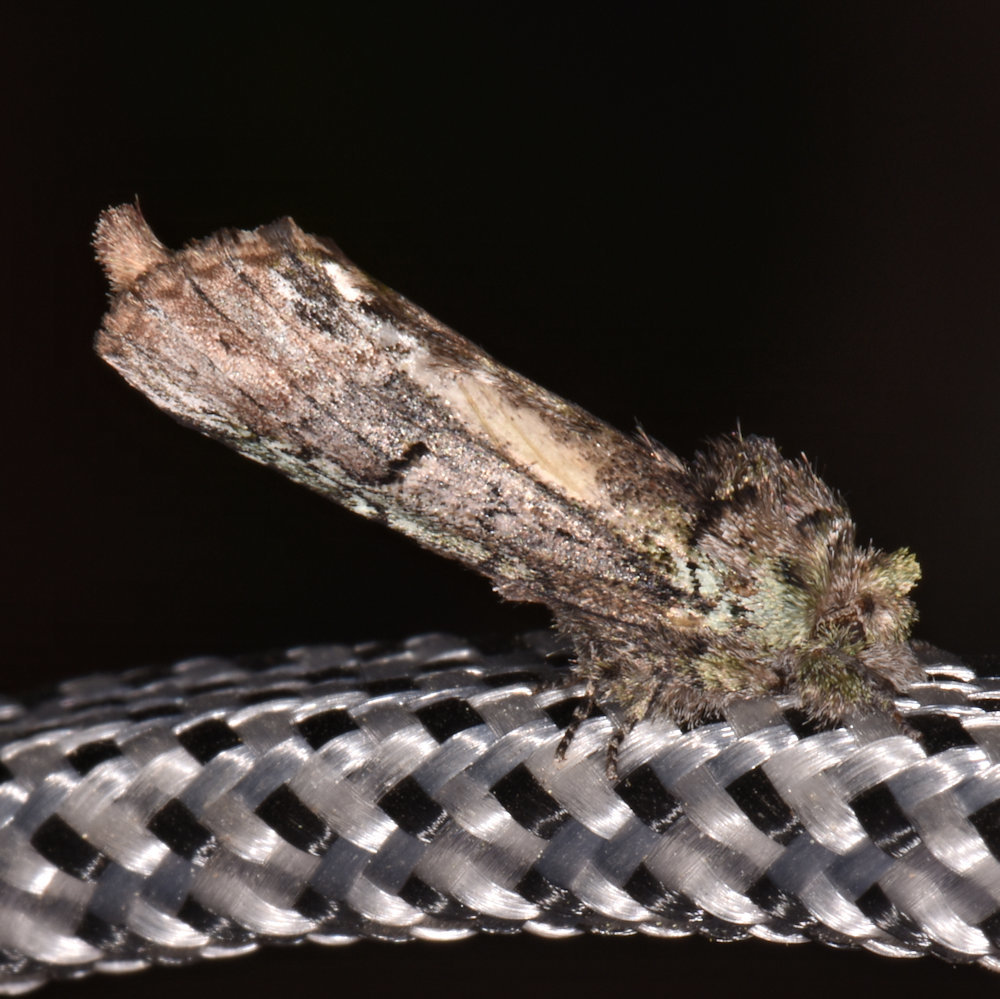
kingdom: Animalia
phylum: Arthropoda
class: Insecta
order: Lepidoptera
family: Notodontidae
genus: Schizura
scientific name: Schizura
